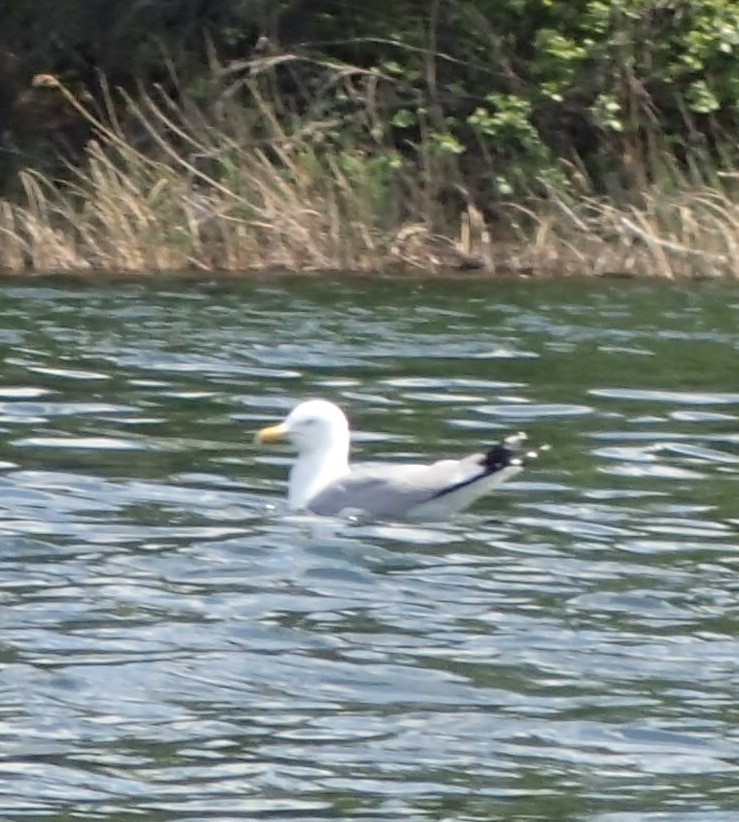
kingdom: Animalia
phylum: Chordata
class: Aves
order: Charadriiformes
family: Laridae
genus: Larus
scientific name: Larus argentatus
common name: Herring gull
